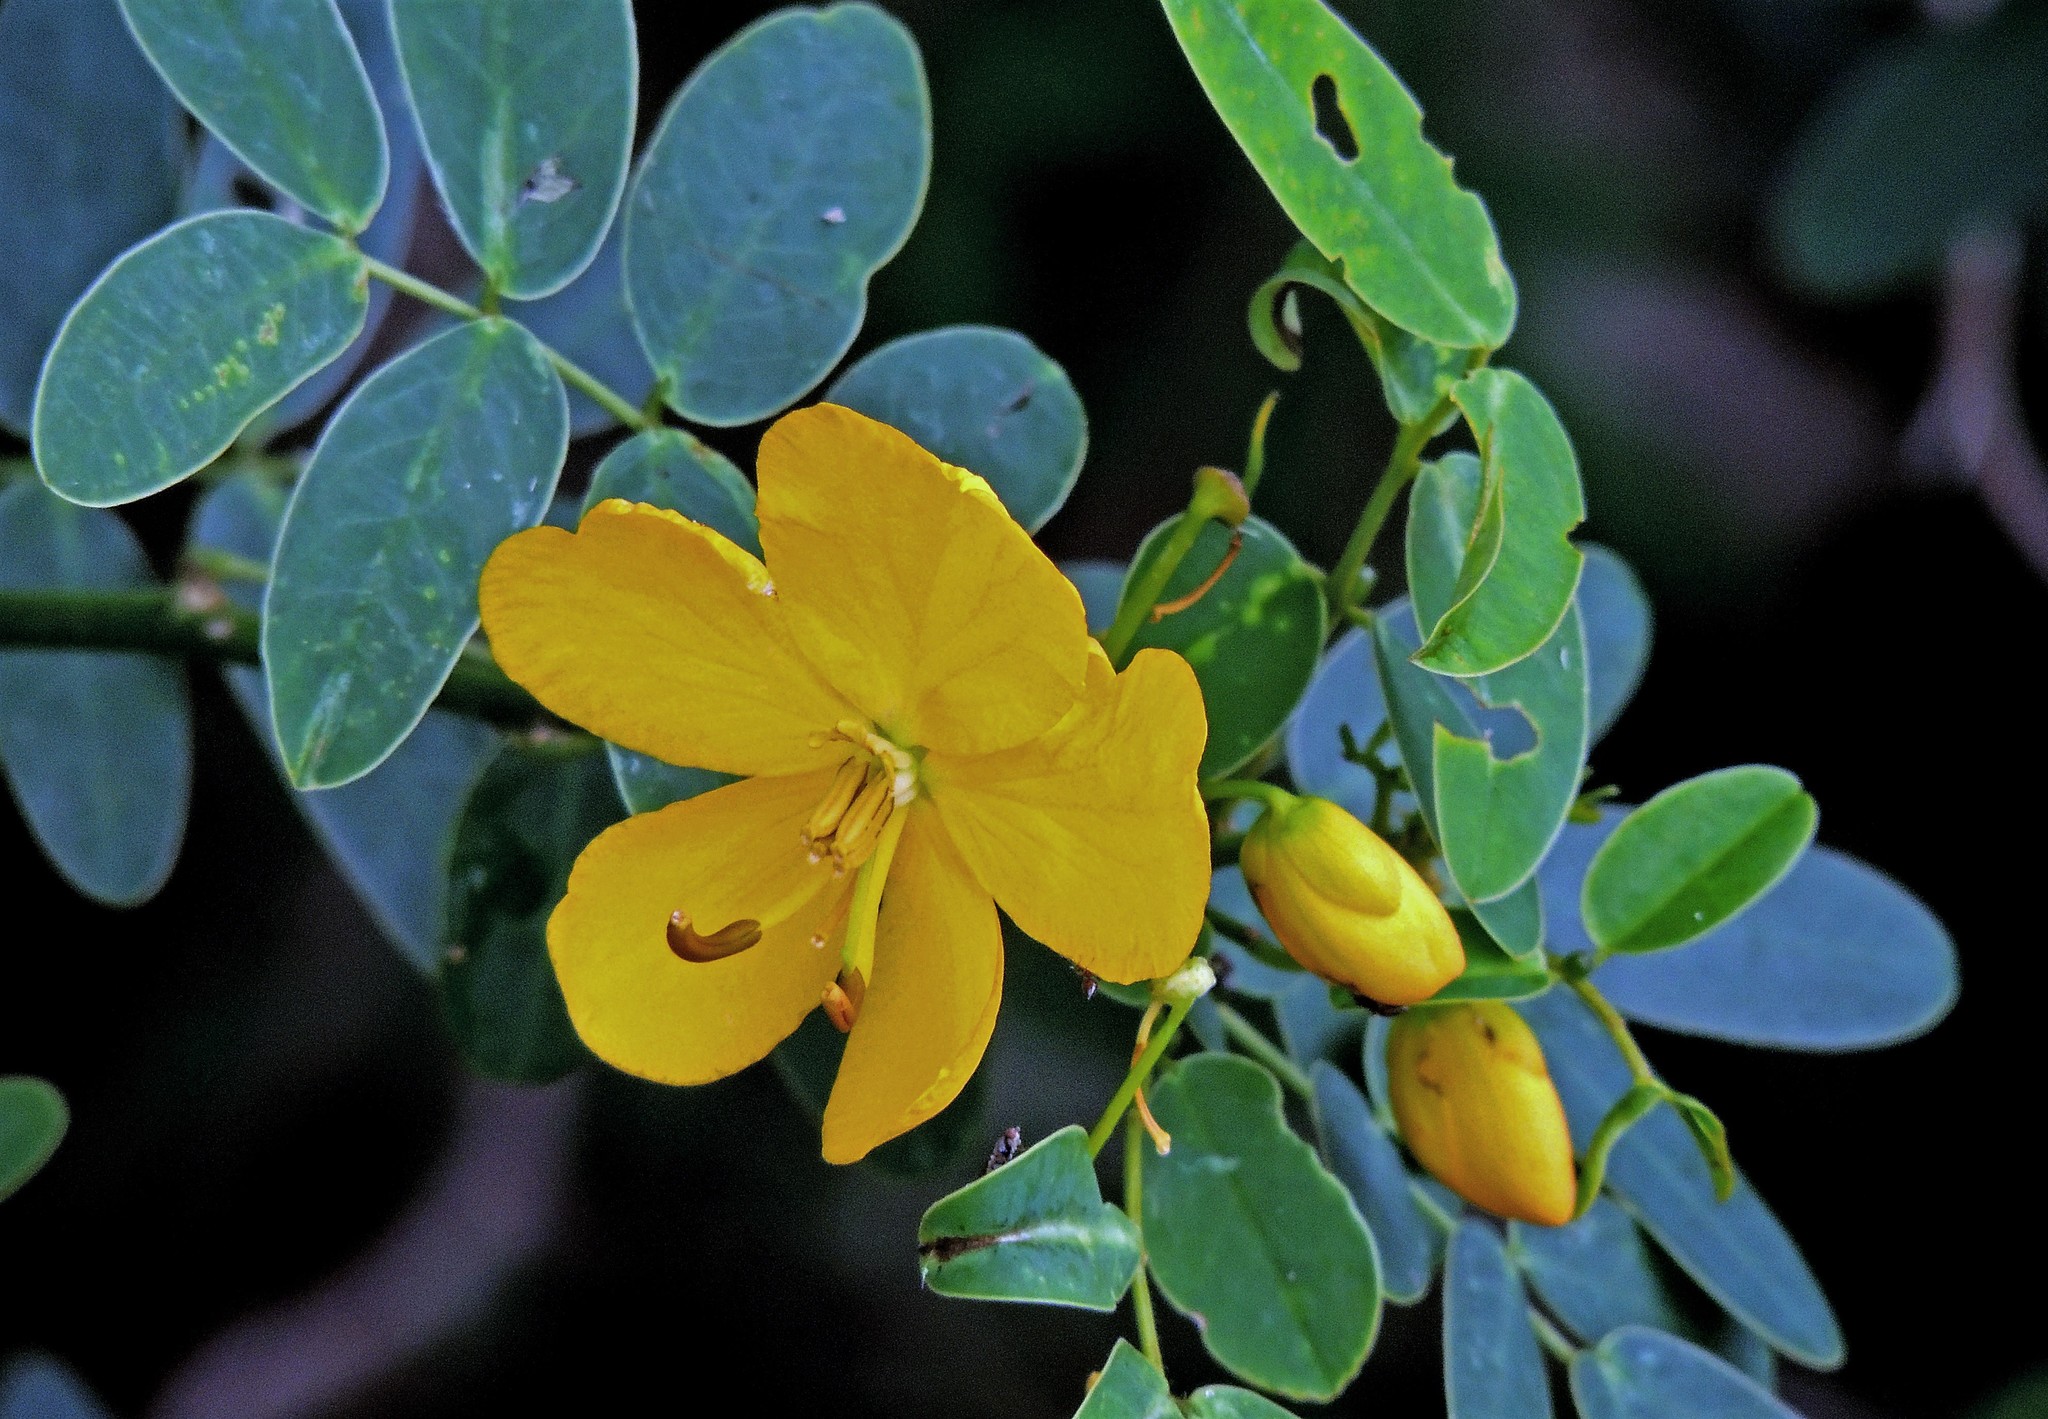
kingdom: Plantae
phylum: Tracheophyta
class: Magnoliopsida
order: Fabales
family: Fabaceae
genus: Senna
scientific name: Senna bicapsularis
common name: Christmasbush
